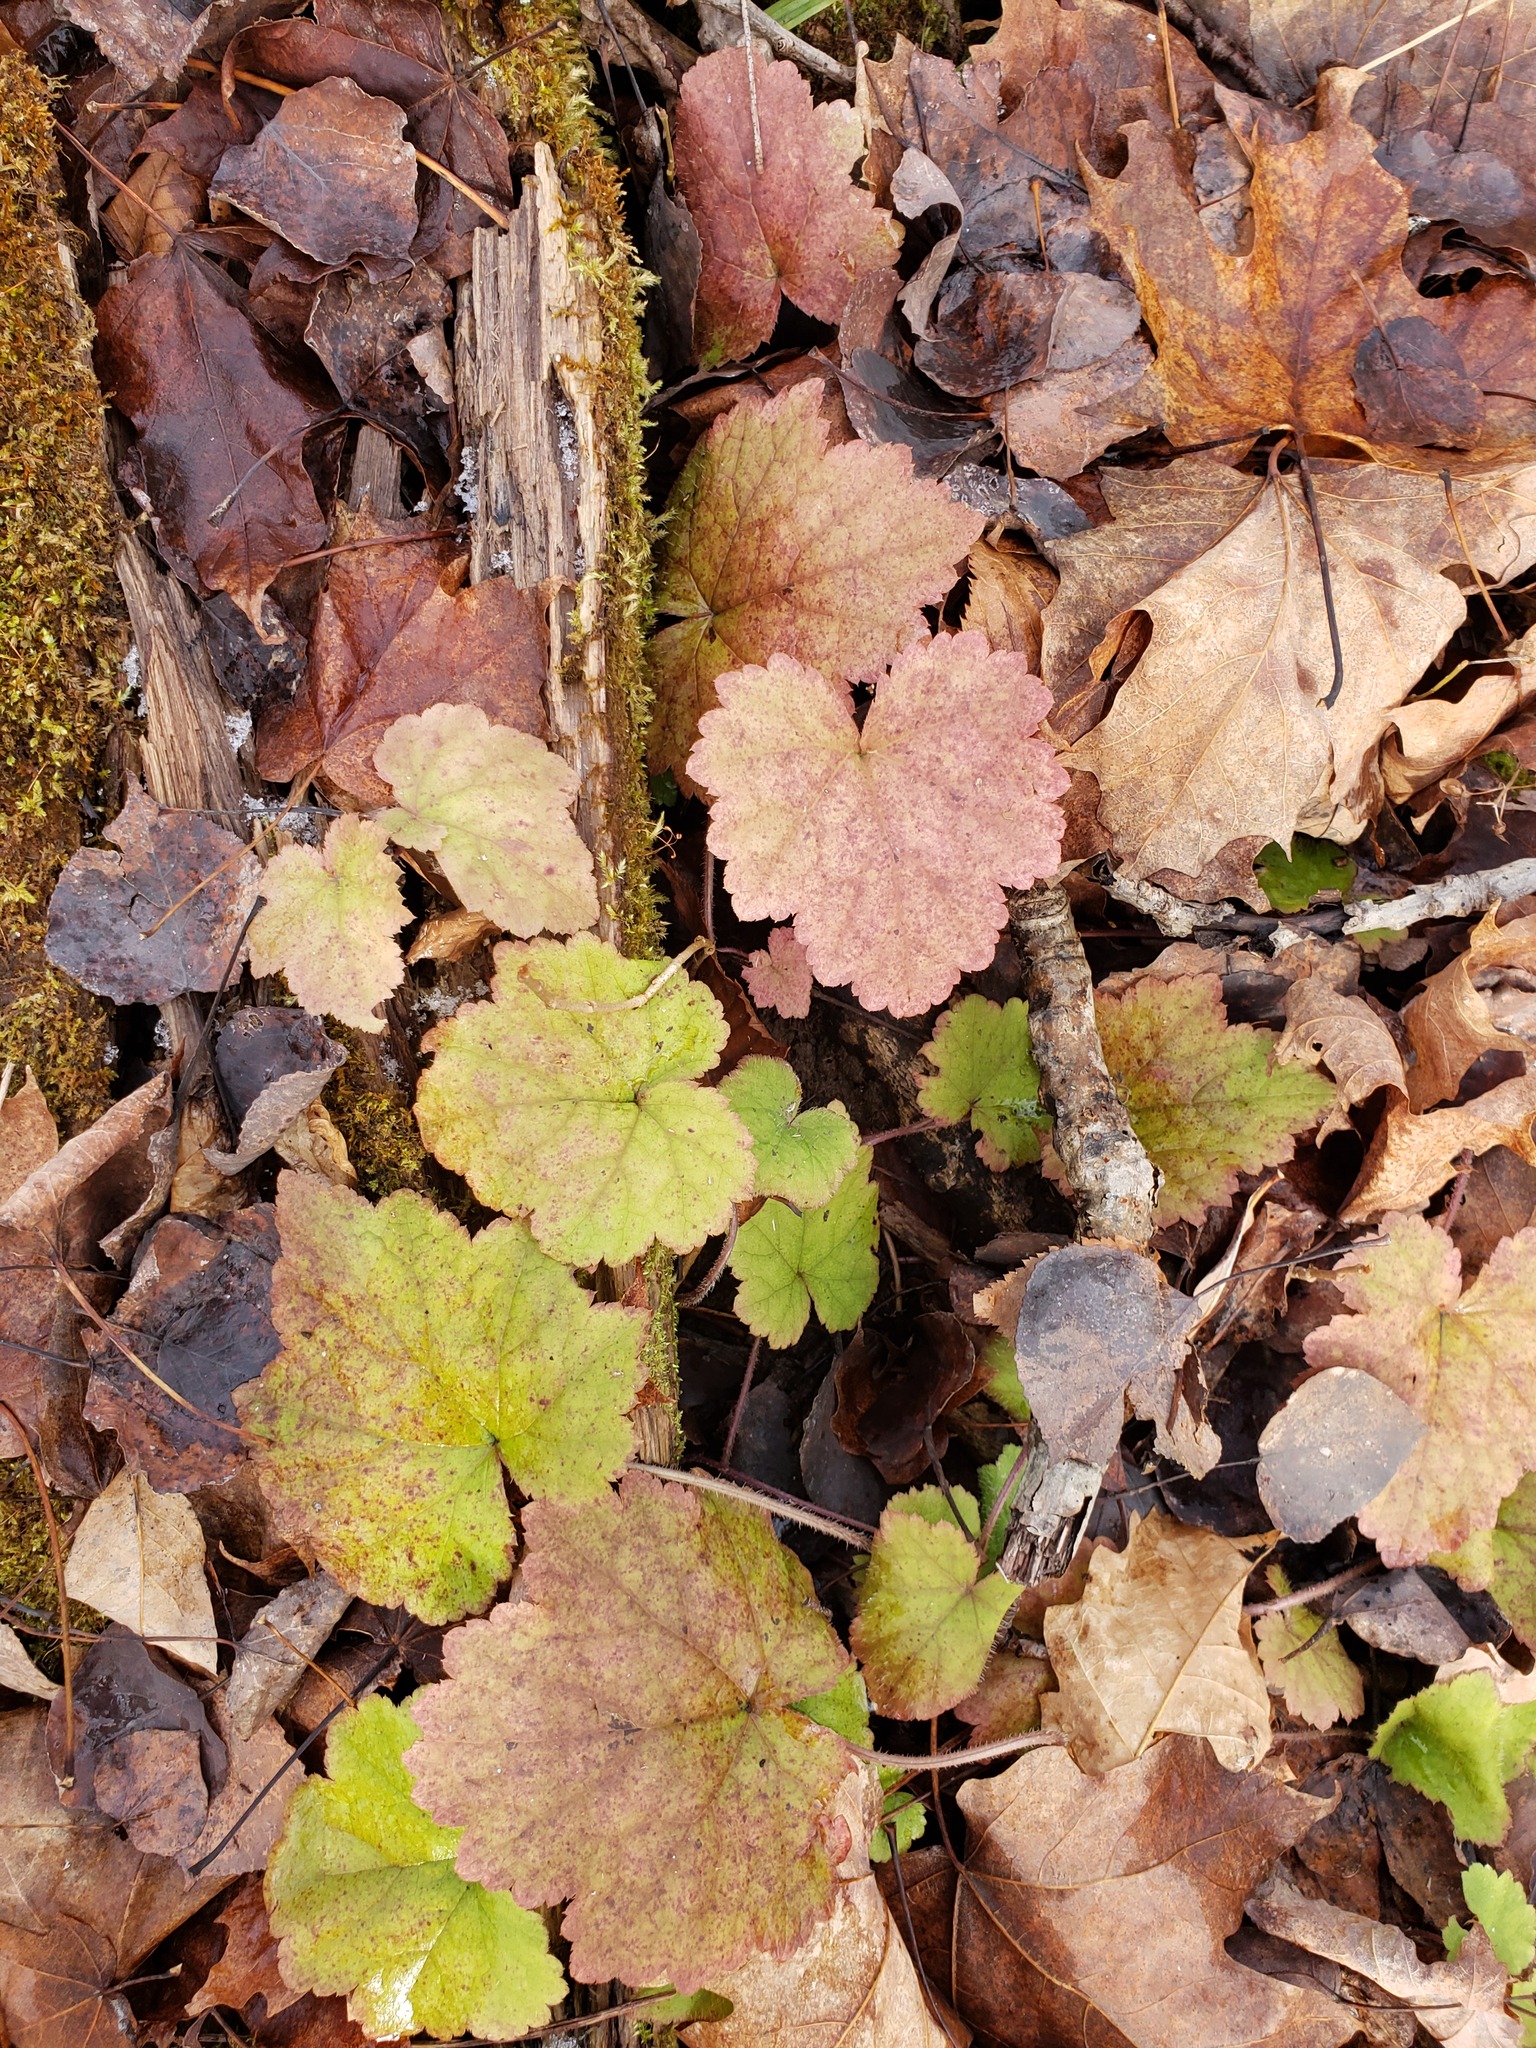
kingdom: Plantae
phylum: Tracheophyta
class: Magnoliopsida
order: Saxifragales
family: Saxifragaceae
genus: Tiarella
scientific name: Tiarella stolonifera
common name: Stoloniferous foamflower
